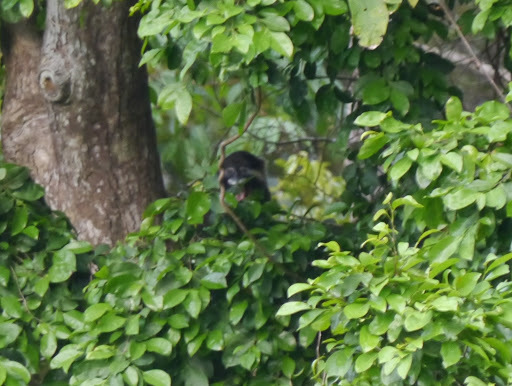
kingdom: Animalia
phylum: Chordata
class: Mammalia
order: Primates
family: Cercopithecidae
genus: Cercopithecus
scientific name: Cercopithecus cephus
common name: Moustached guenon
